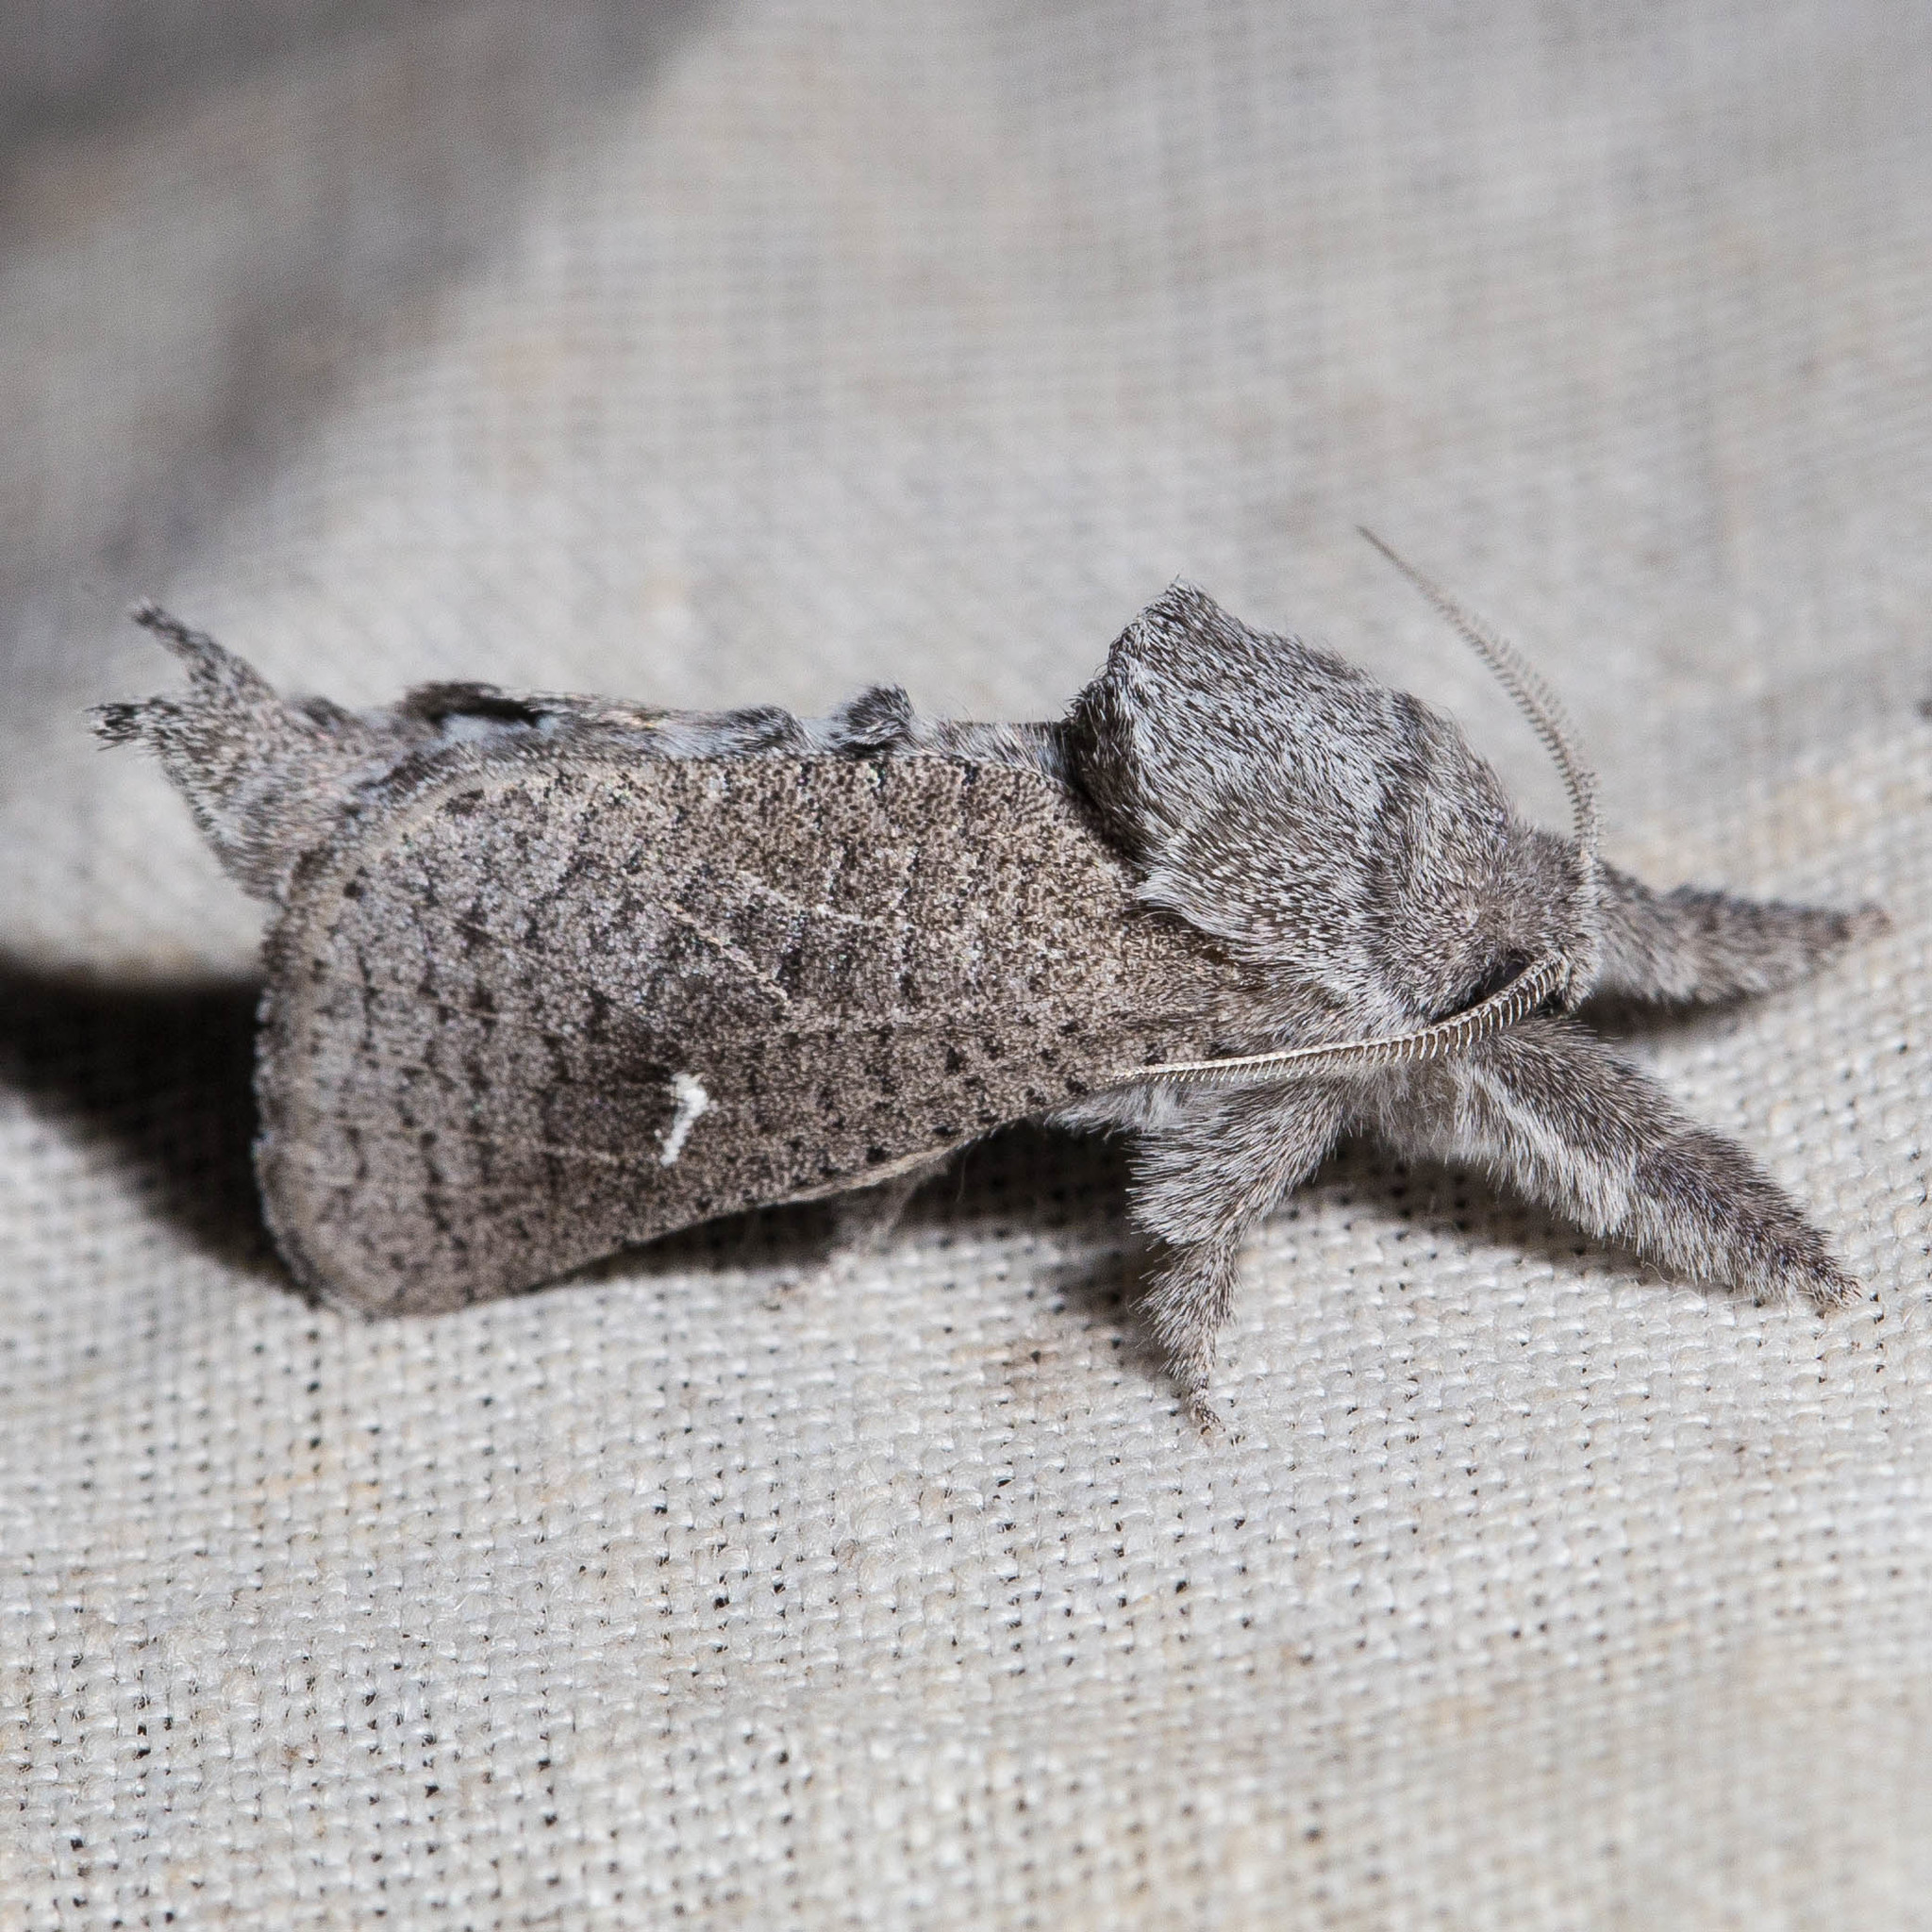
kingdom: Animalia
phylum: Arthropoda
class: Insecta
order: Lepidoptera
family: Cossidae
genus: Givira
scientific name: Givira marga
